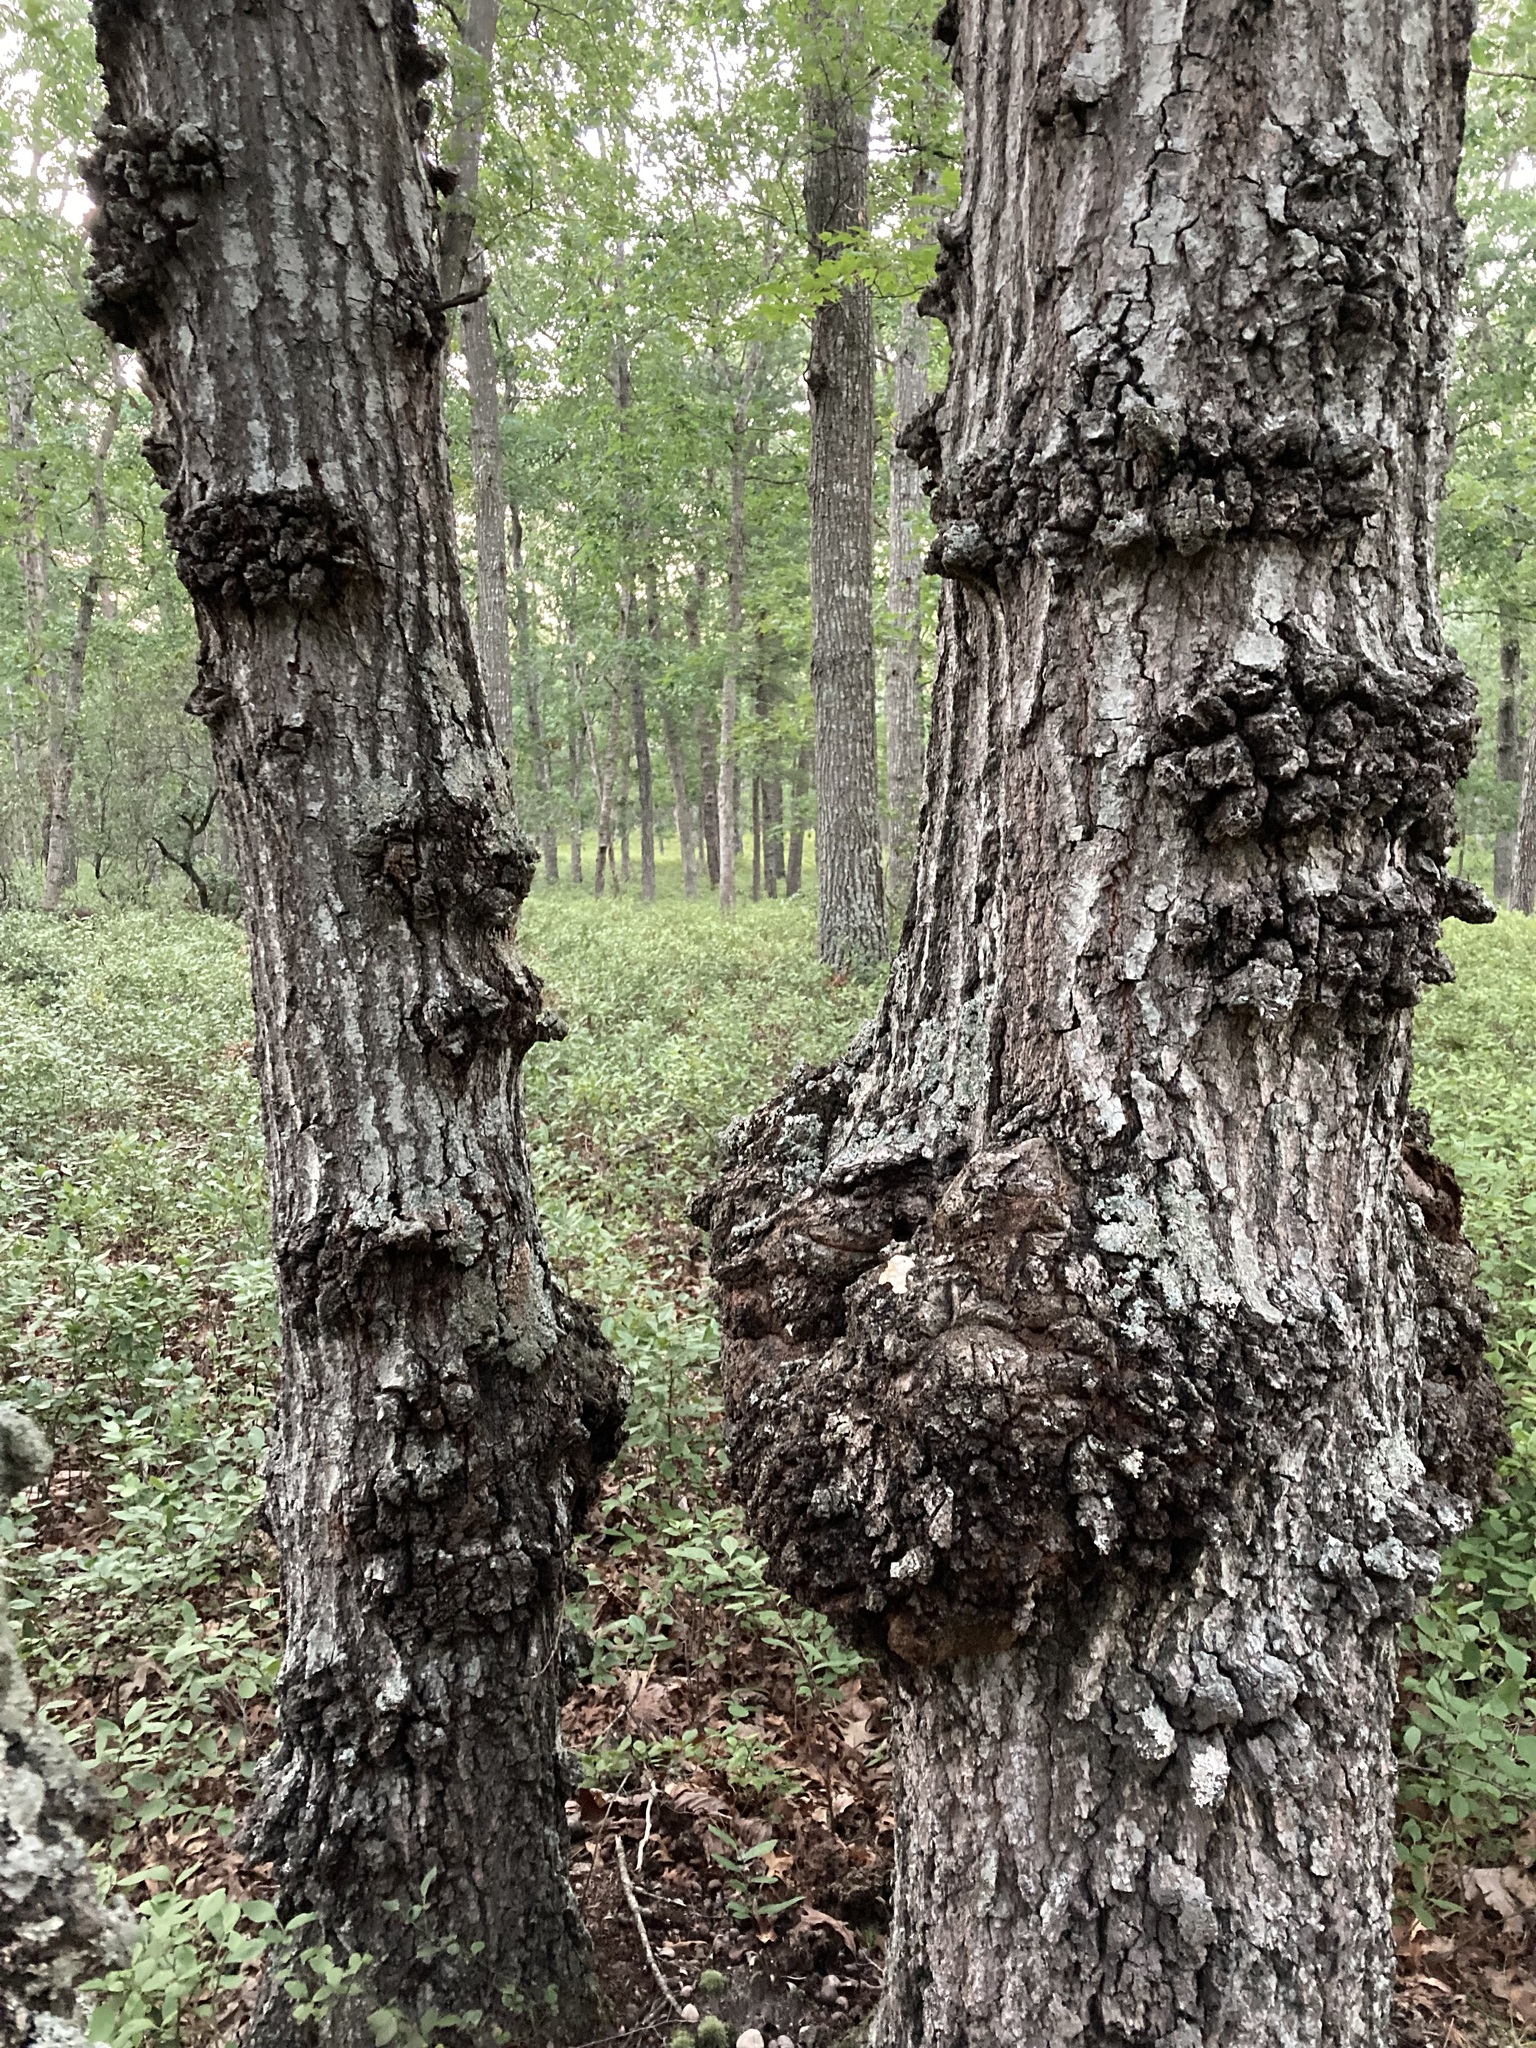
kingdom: Bacteria
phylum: Proteobacteria
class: Alphaproteobacteria
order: Rhizobiales
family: Rhizobiaceae
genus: Rhizobium
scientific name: Rhizobium Agrobacterium radiobacter
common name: Bacterial crown gall
